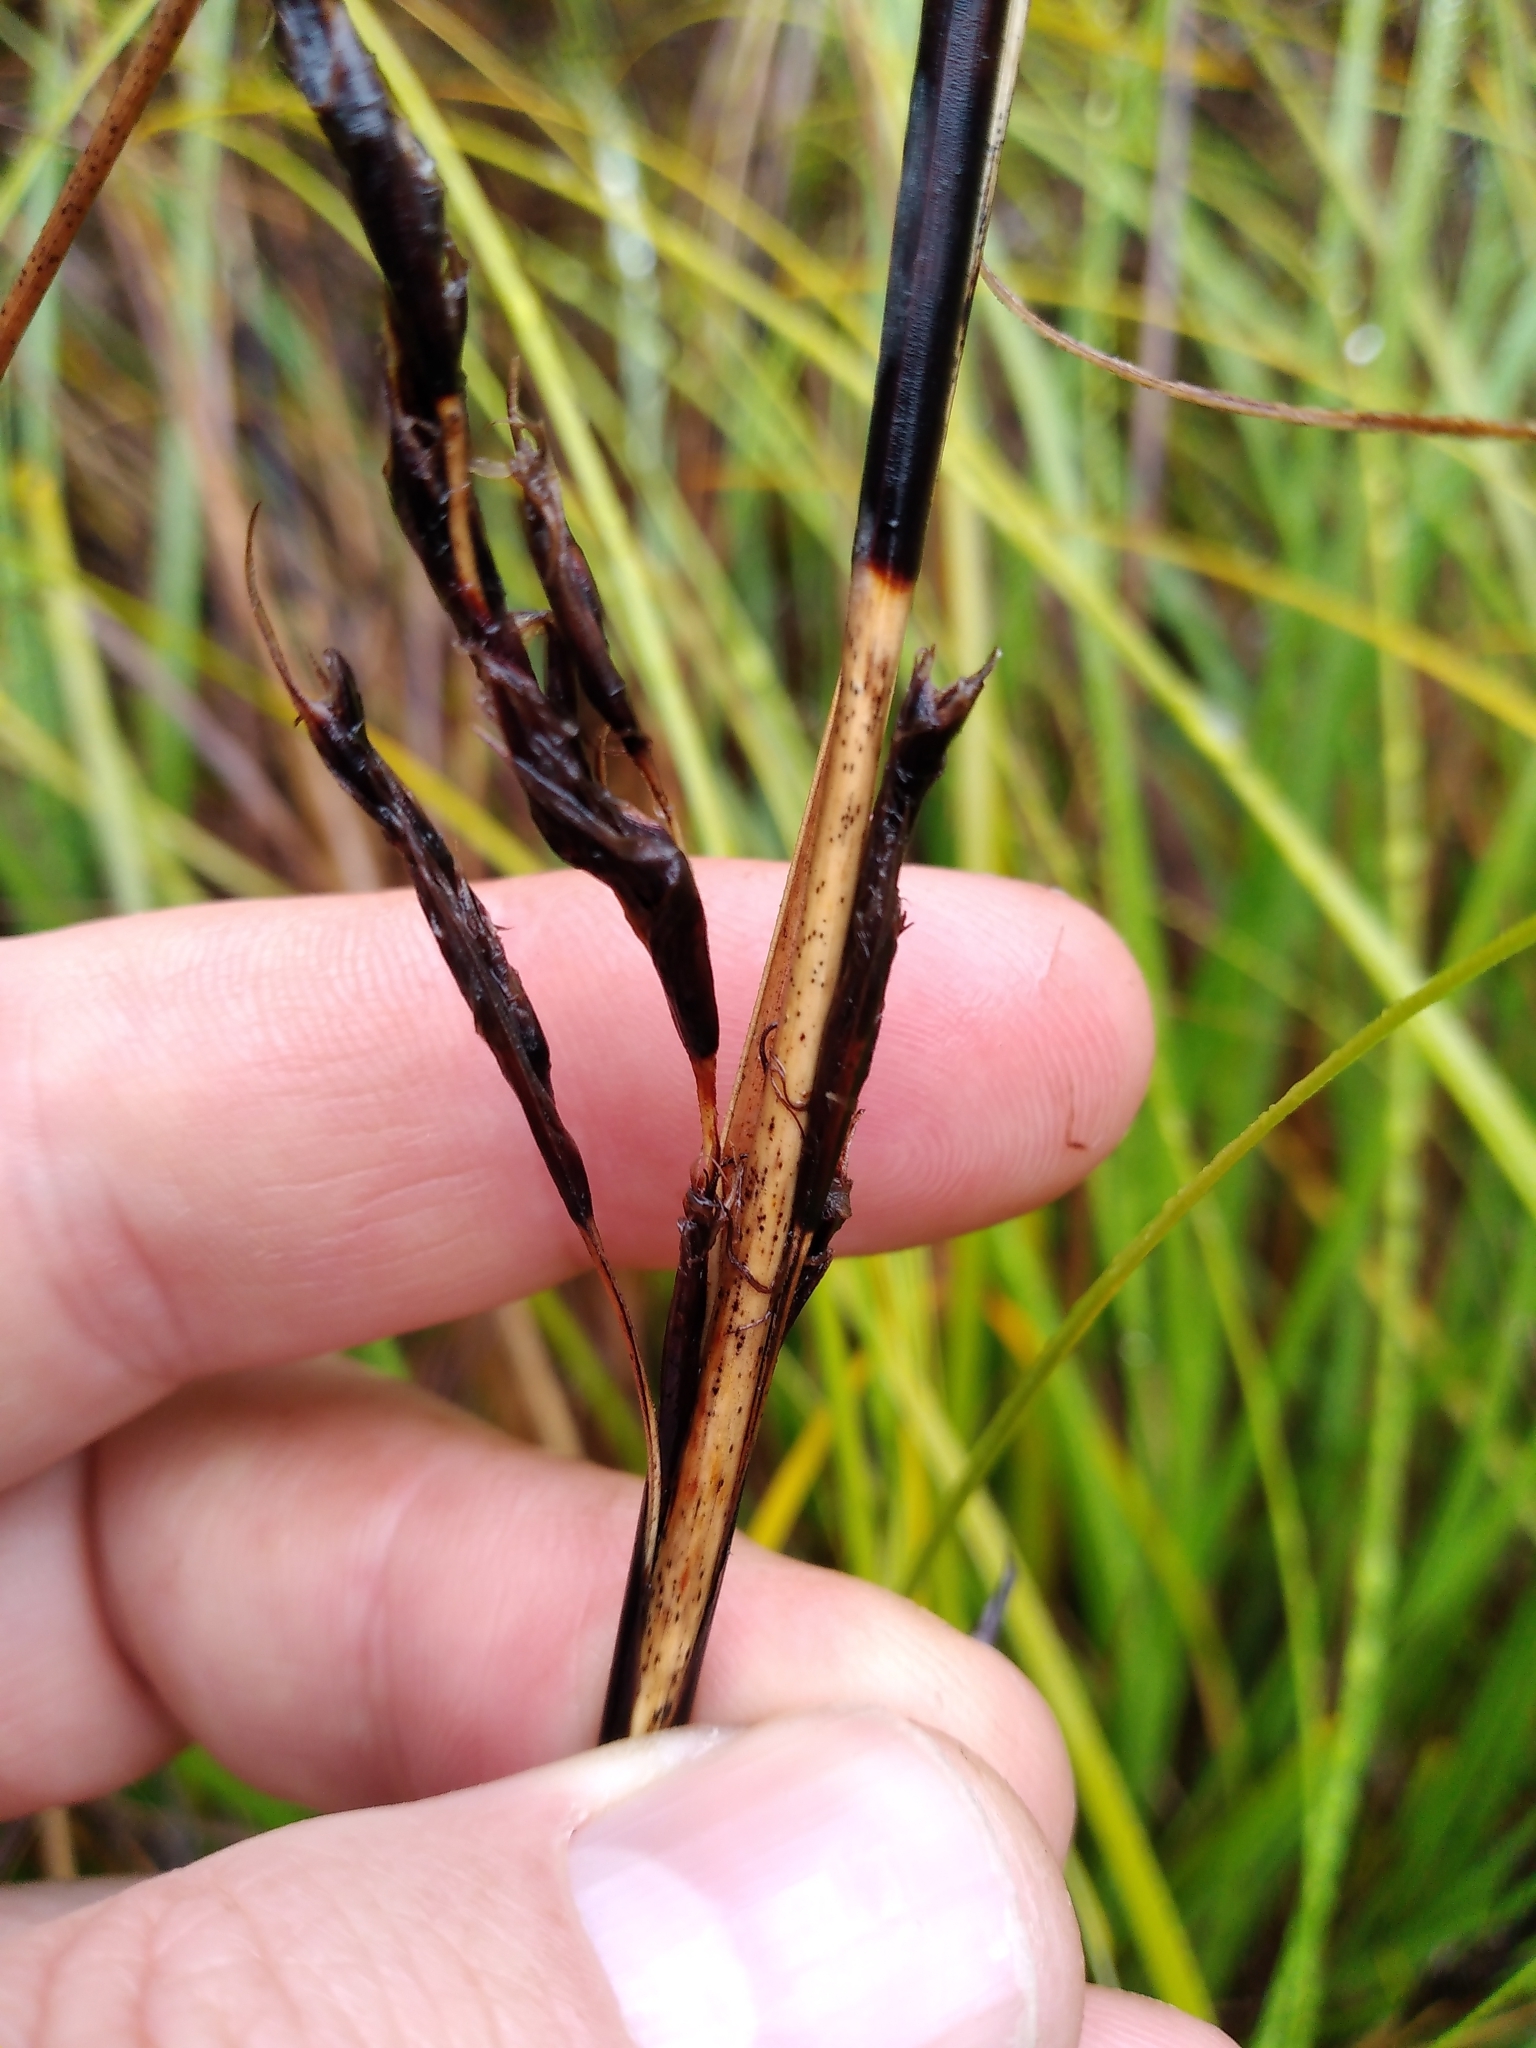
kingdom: Plantae
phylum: Tracheophyta
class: Liliopsida
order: Poales
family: Cyperaceae
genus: Gahnia
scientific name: Gahnia procera
